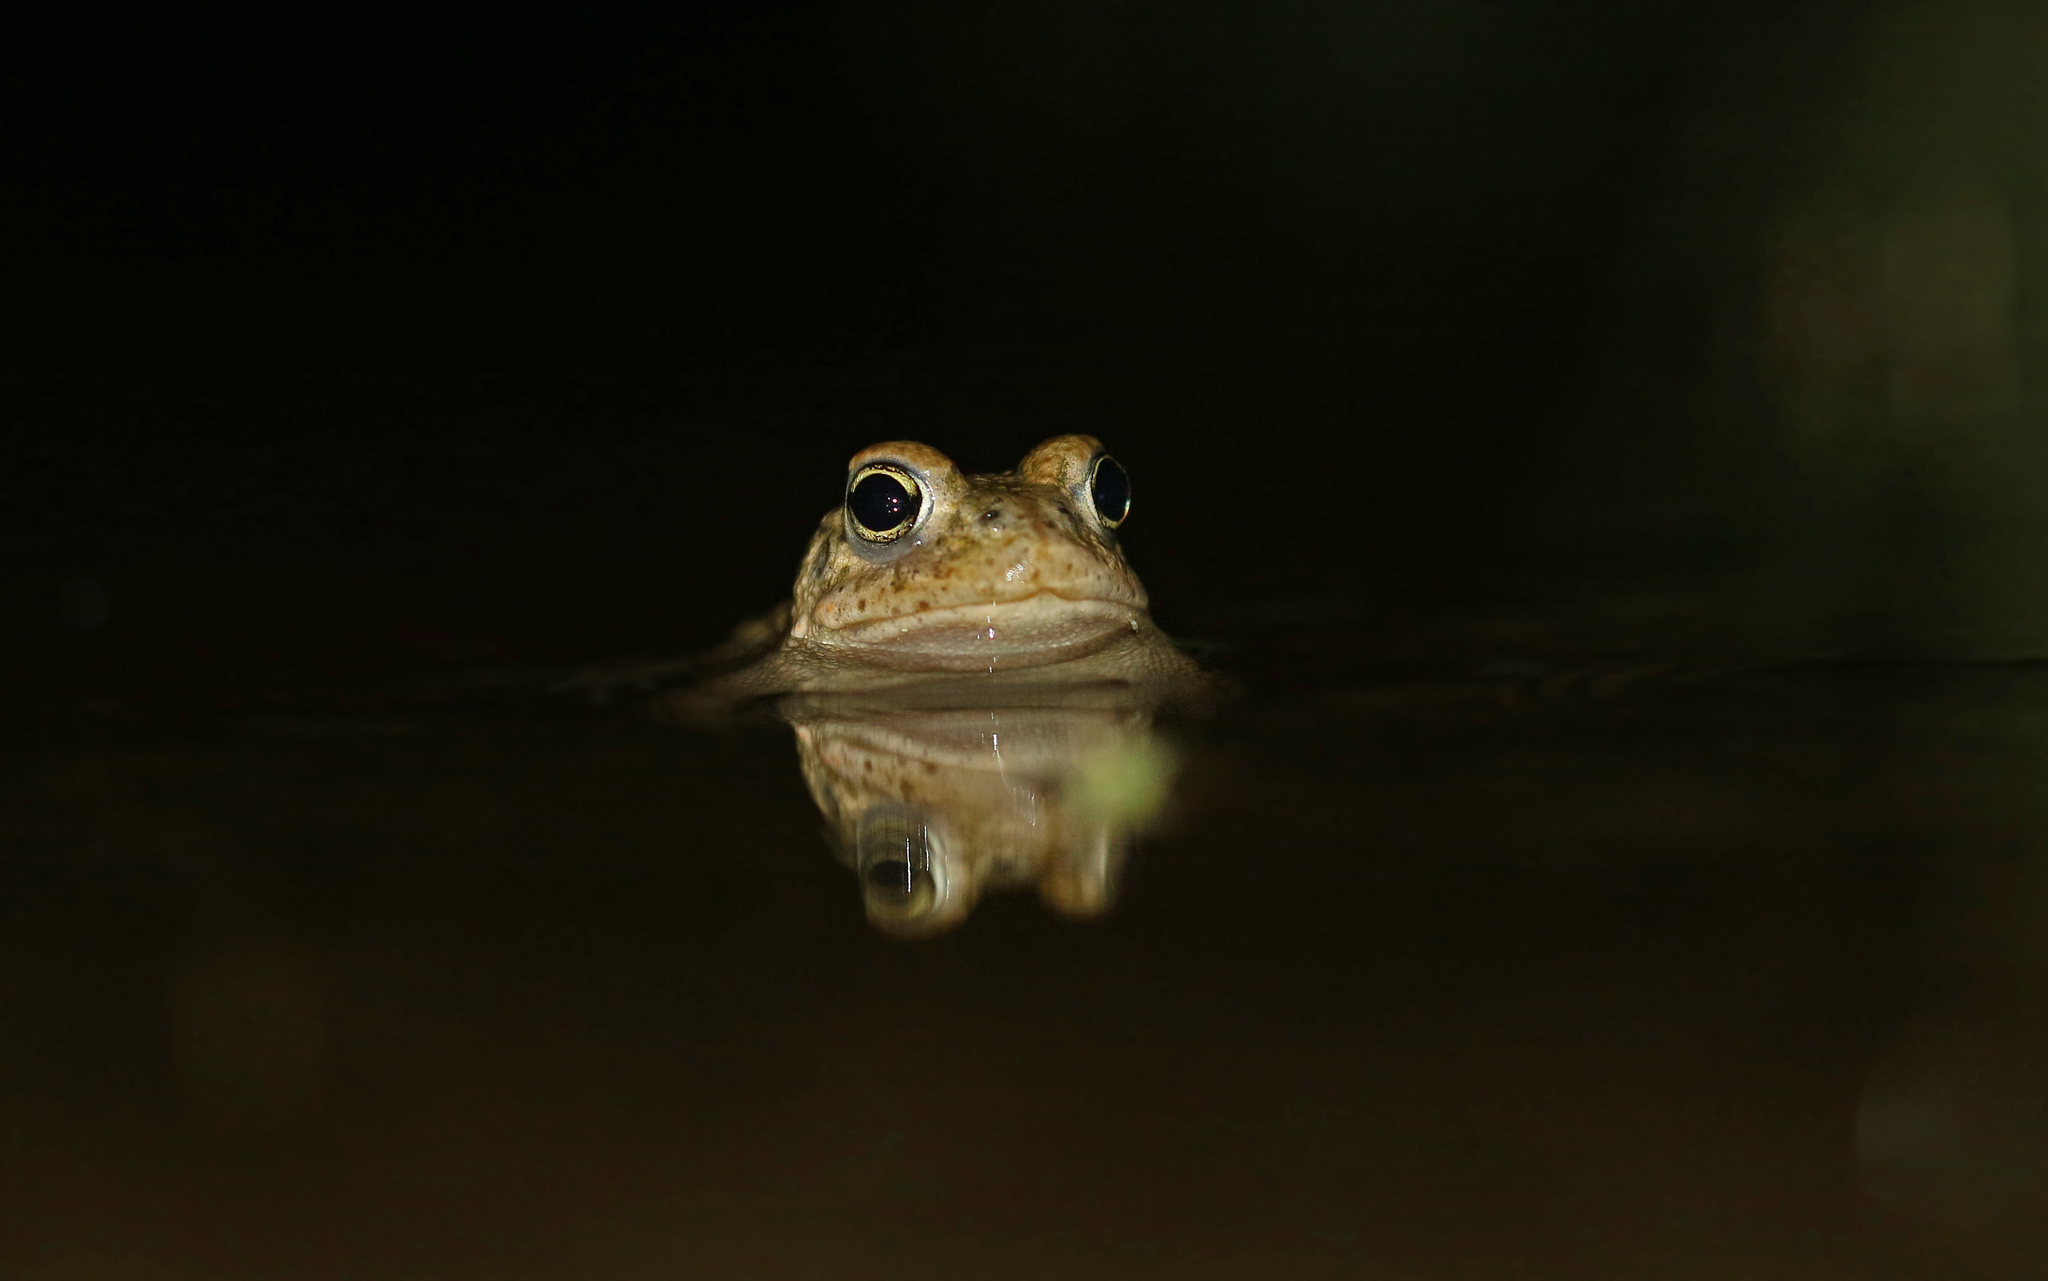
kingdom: Animalia
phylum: Chordata
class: Amphibia
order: Anura
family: Bufonidae
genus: Epidalea
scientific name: Epidalea calamita
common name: Natterjack toad
